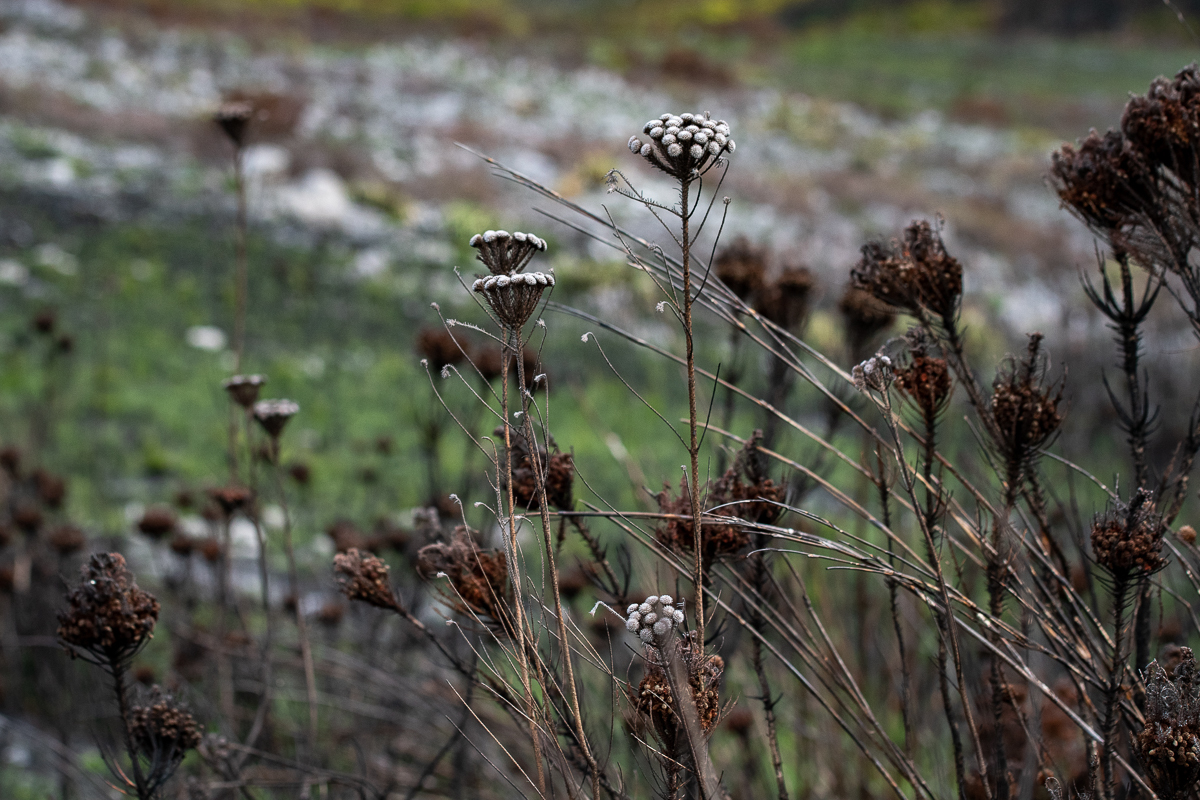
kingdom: Plantae
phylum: Tracheophyta
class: Magnoliopsida
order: Bruniales
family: Bruniaceae
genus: Berzelia
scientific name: Berzelia albiflora
